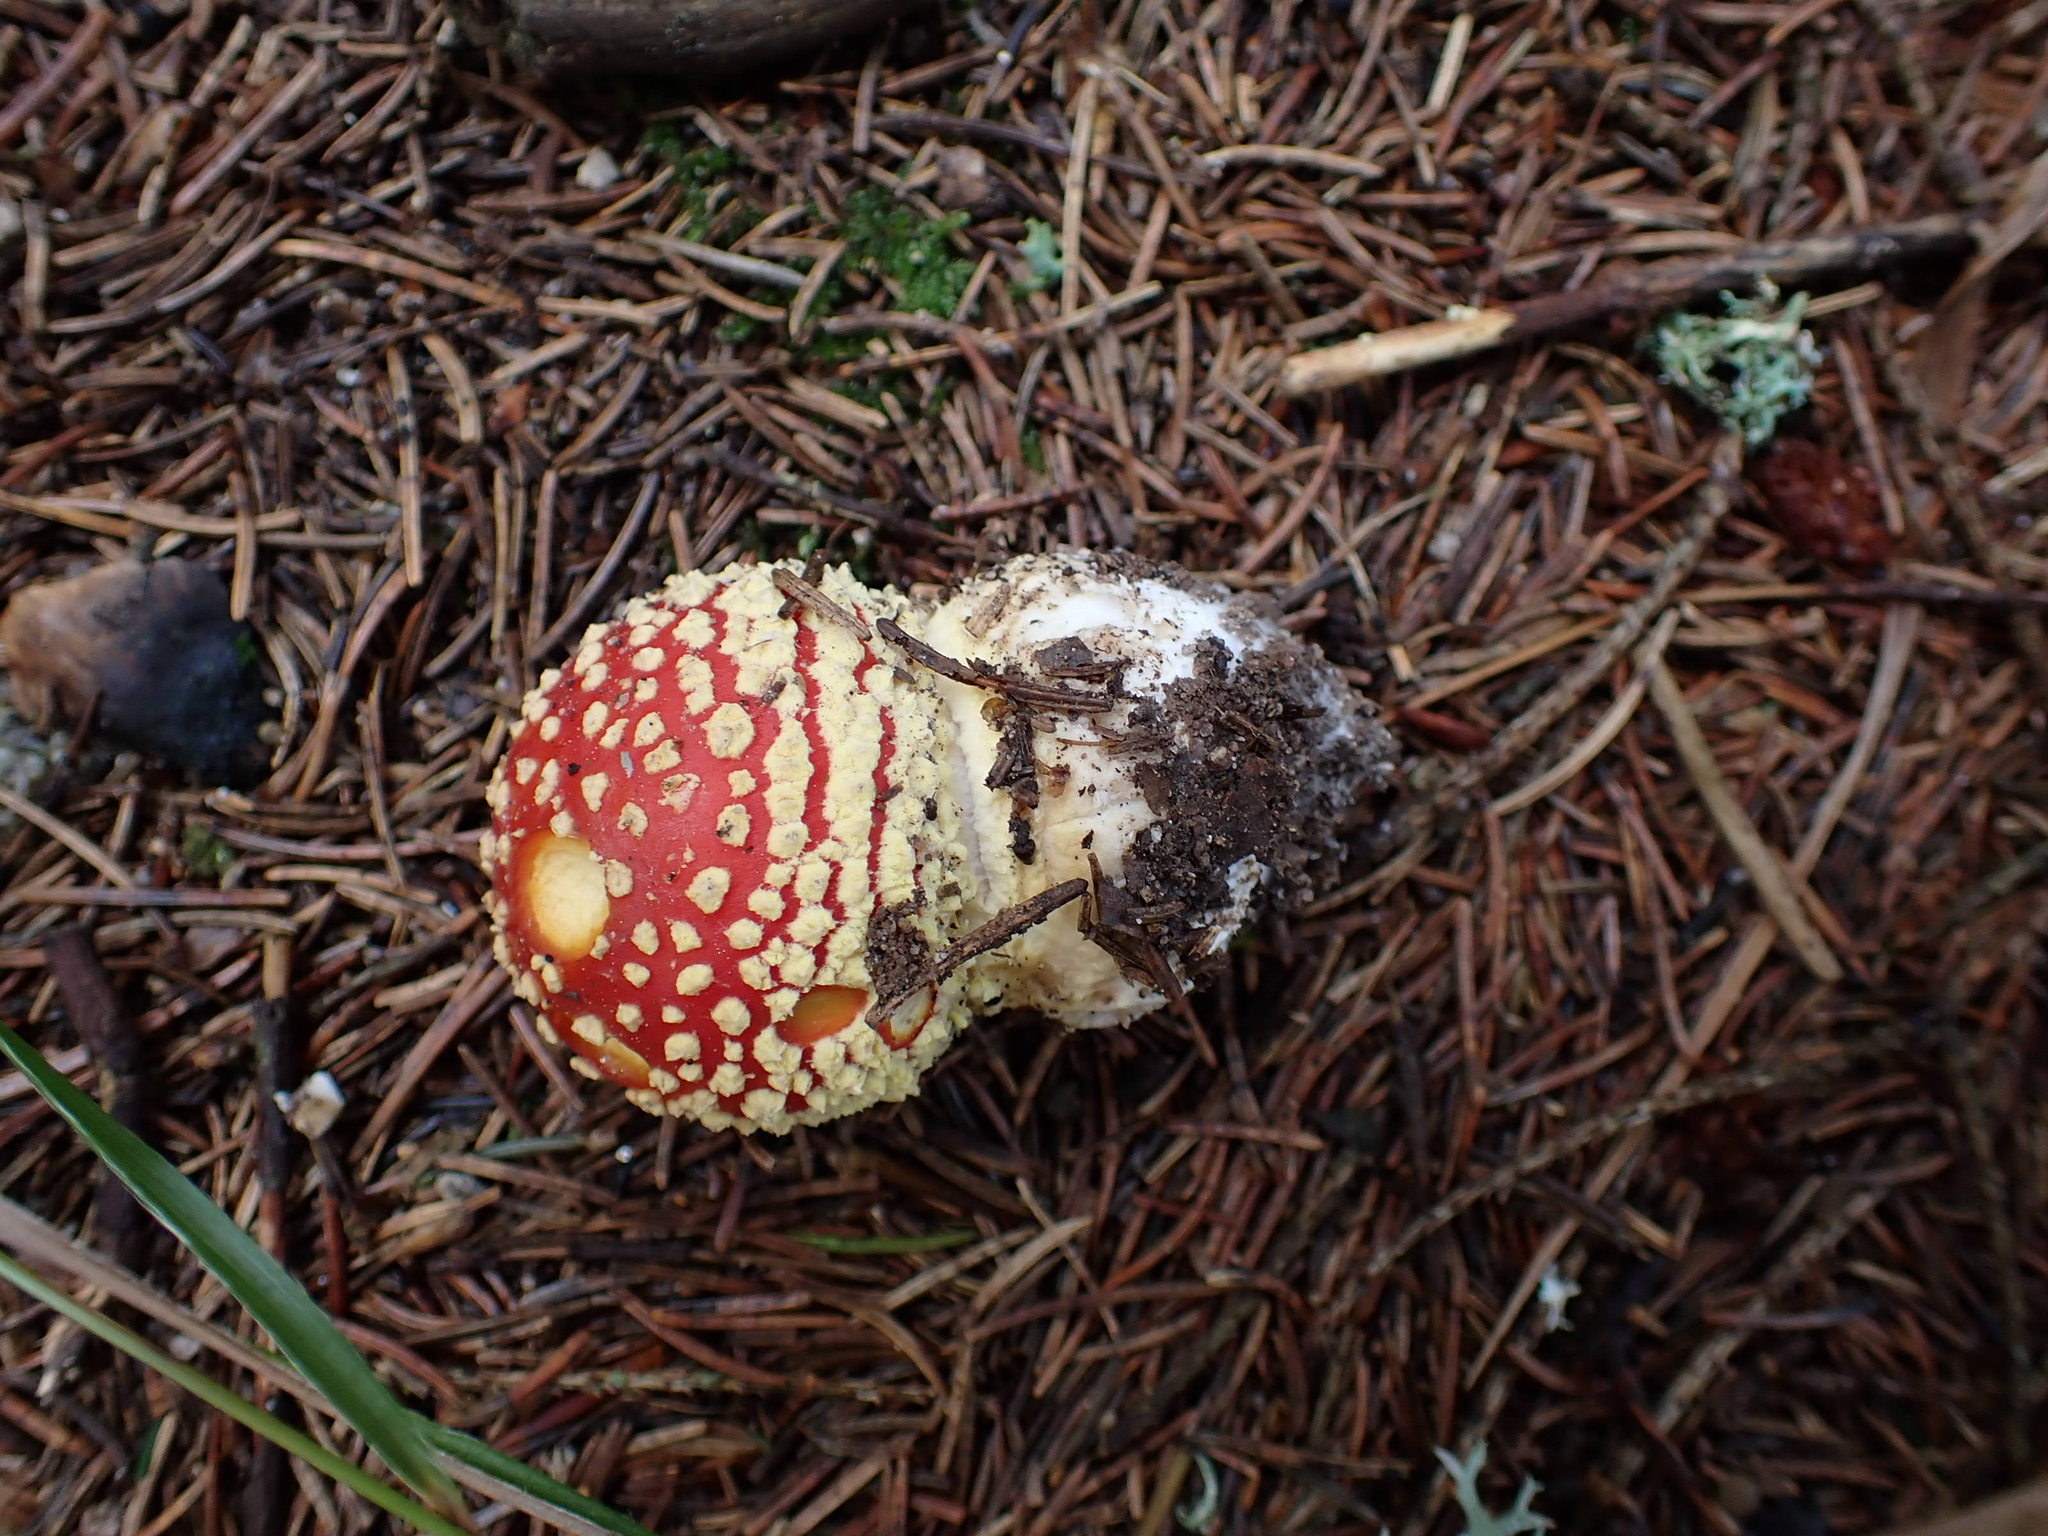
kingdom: Fungi
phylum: Basidiomycota
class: Agaricomycetes
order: Agaricales
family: Amanitaceae
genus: Amanita
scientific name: Amanita muscaria
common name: Fly agaric
